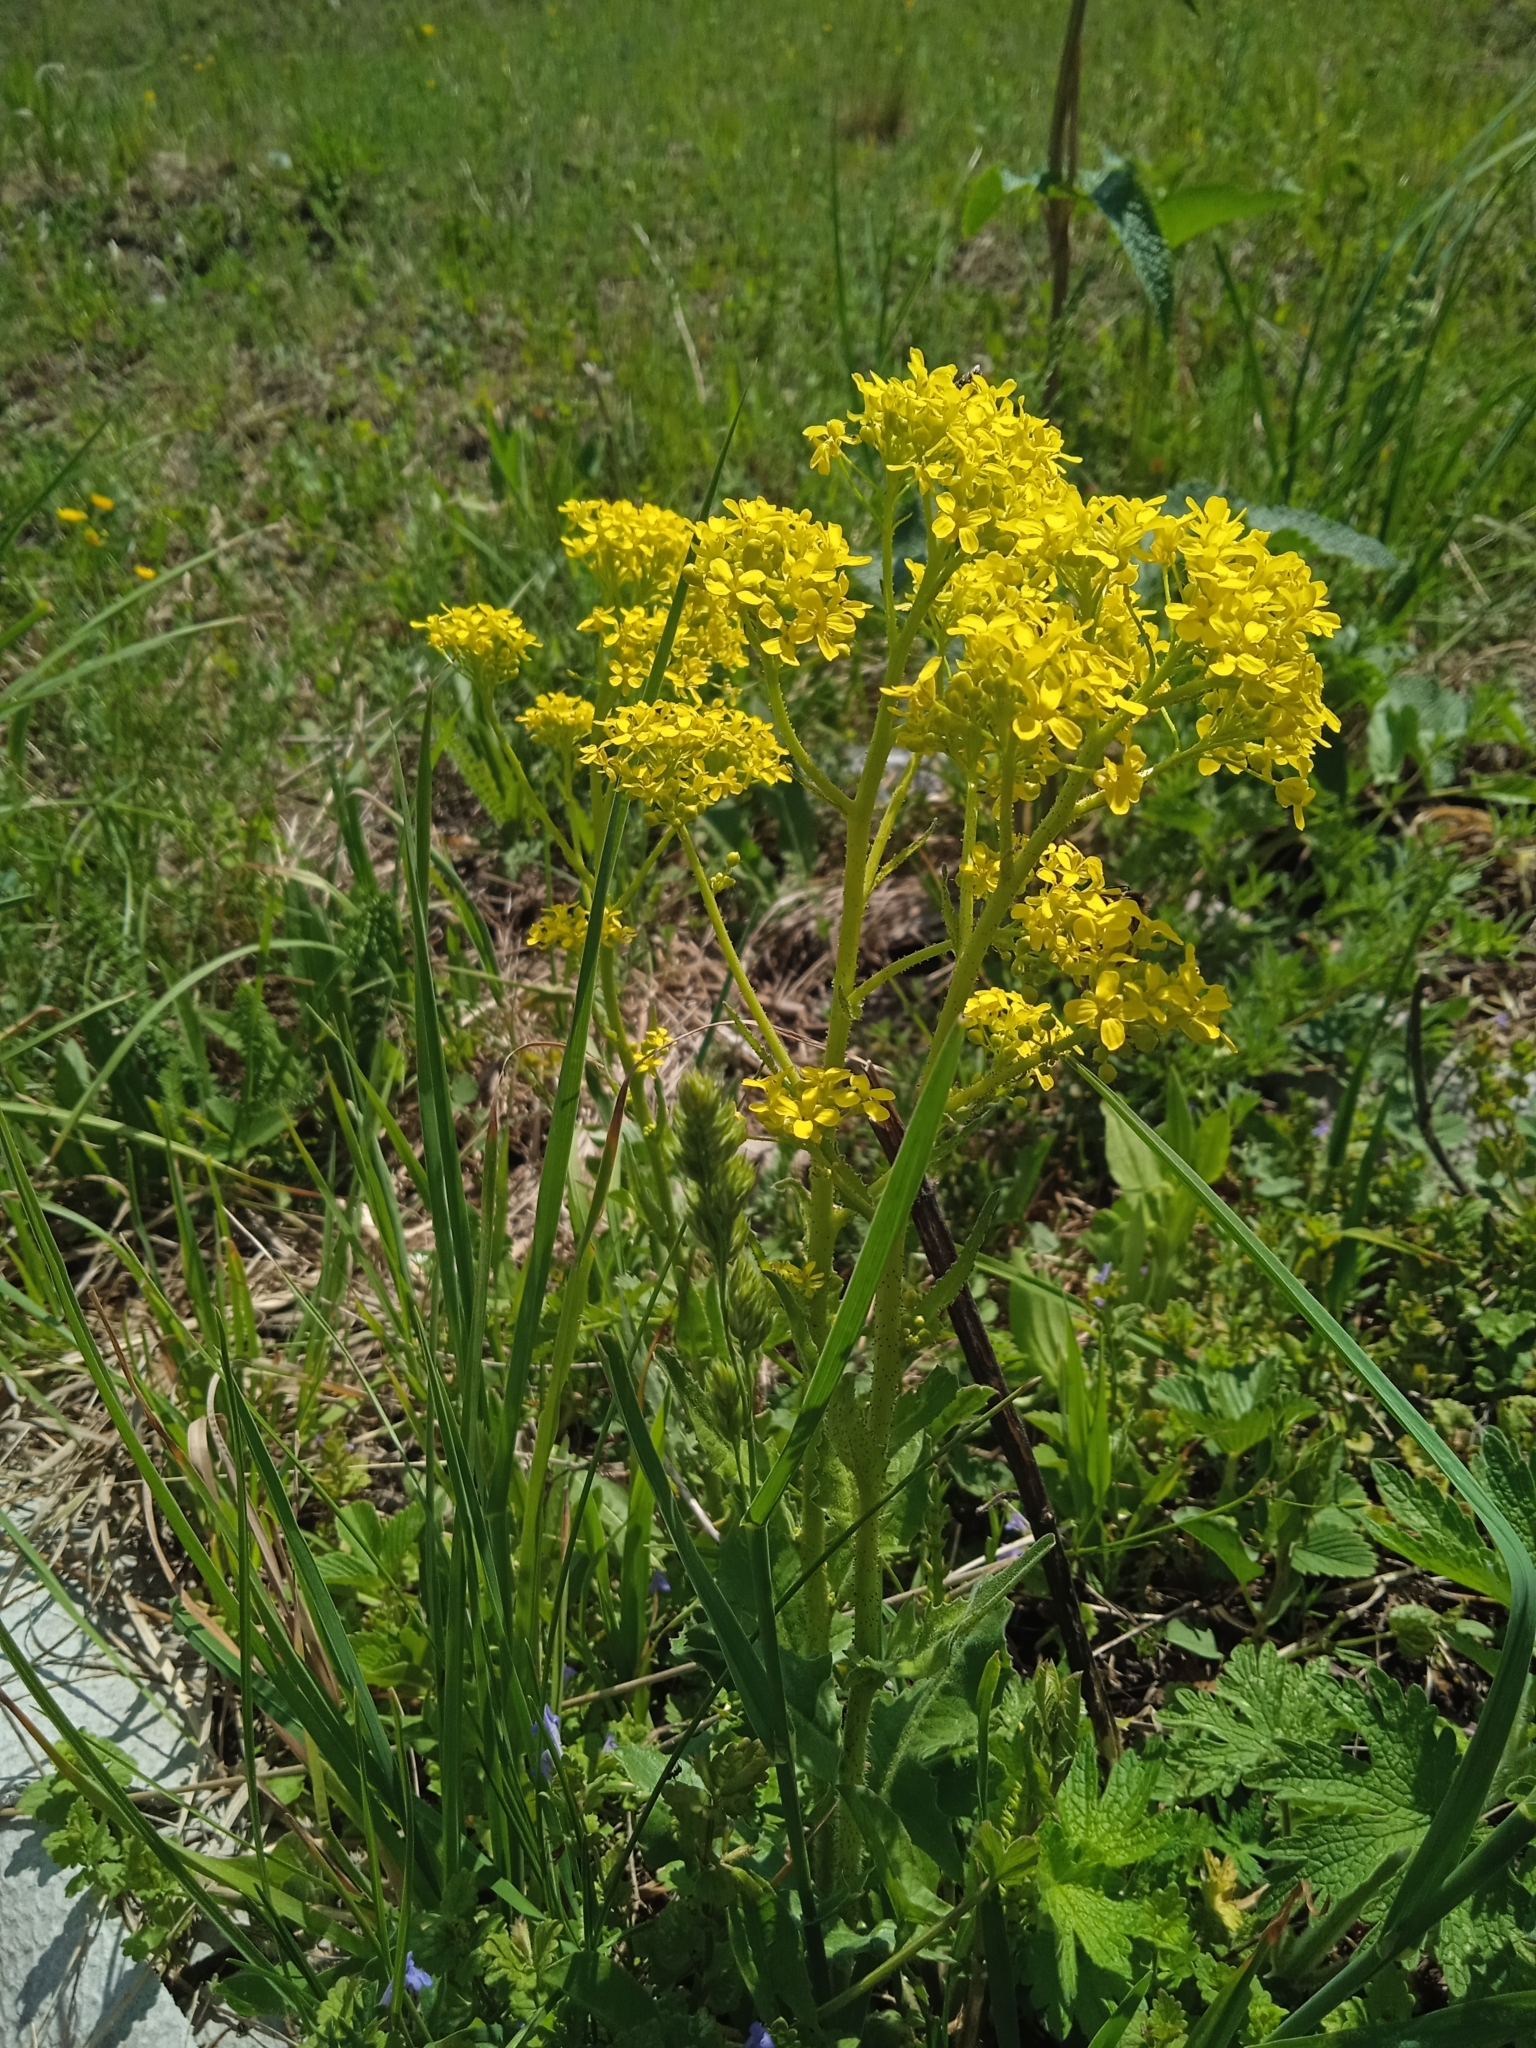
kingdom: Plantae
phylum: Tracheophyta
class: Magnoliopsida
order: Brassicales
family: Brassicaceae
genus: Bunias
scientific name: Bunias orientalis
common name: Warty-cabbage
